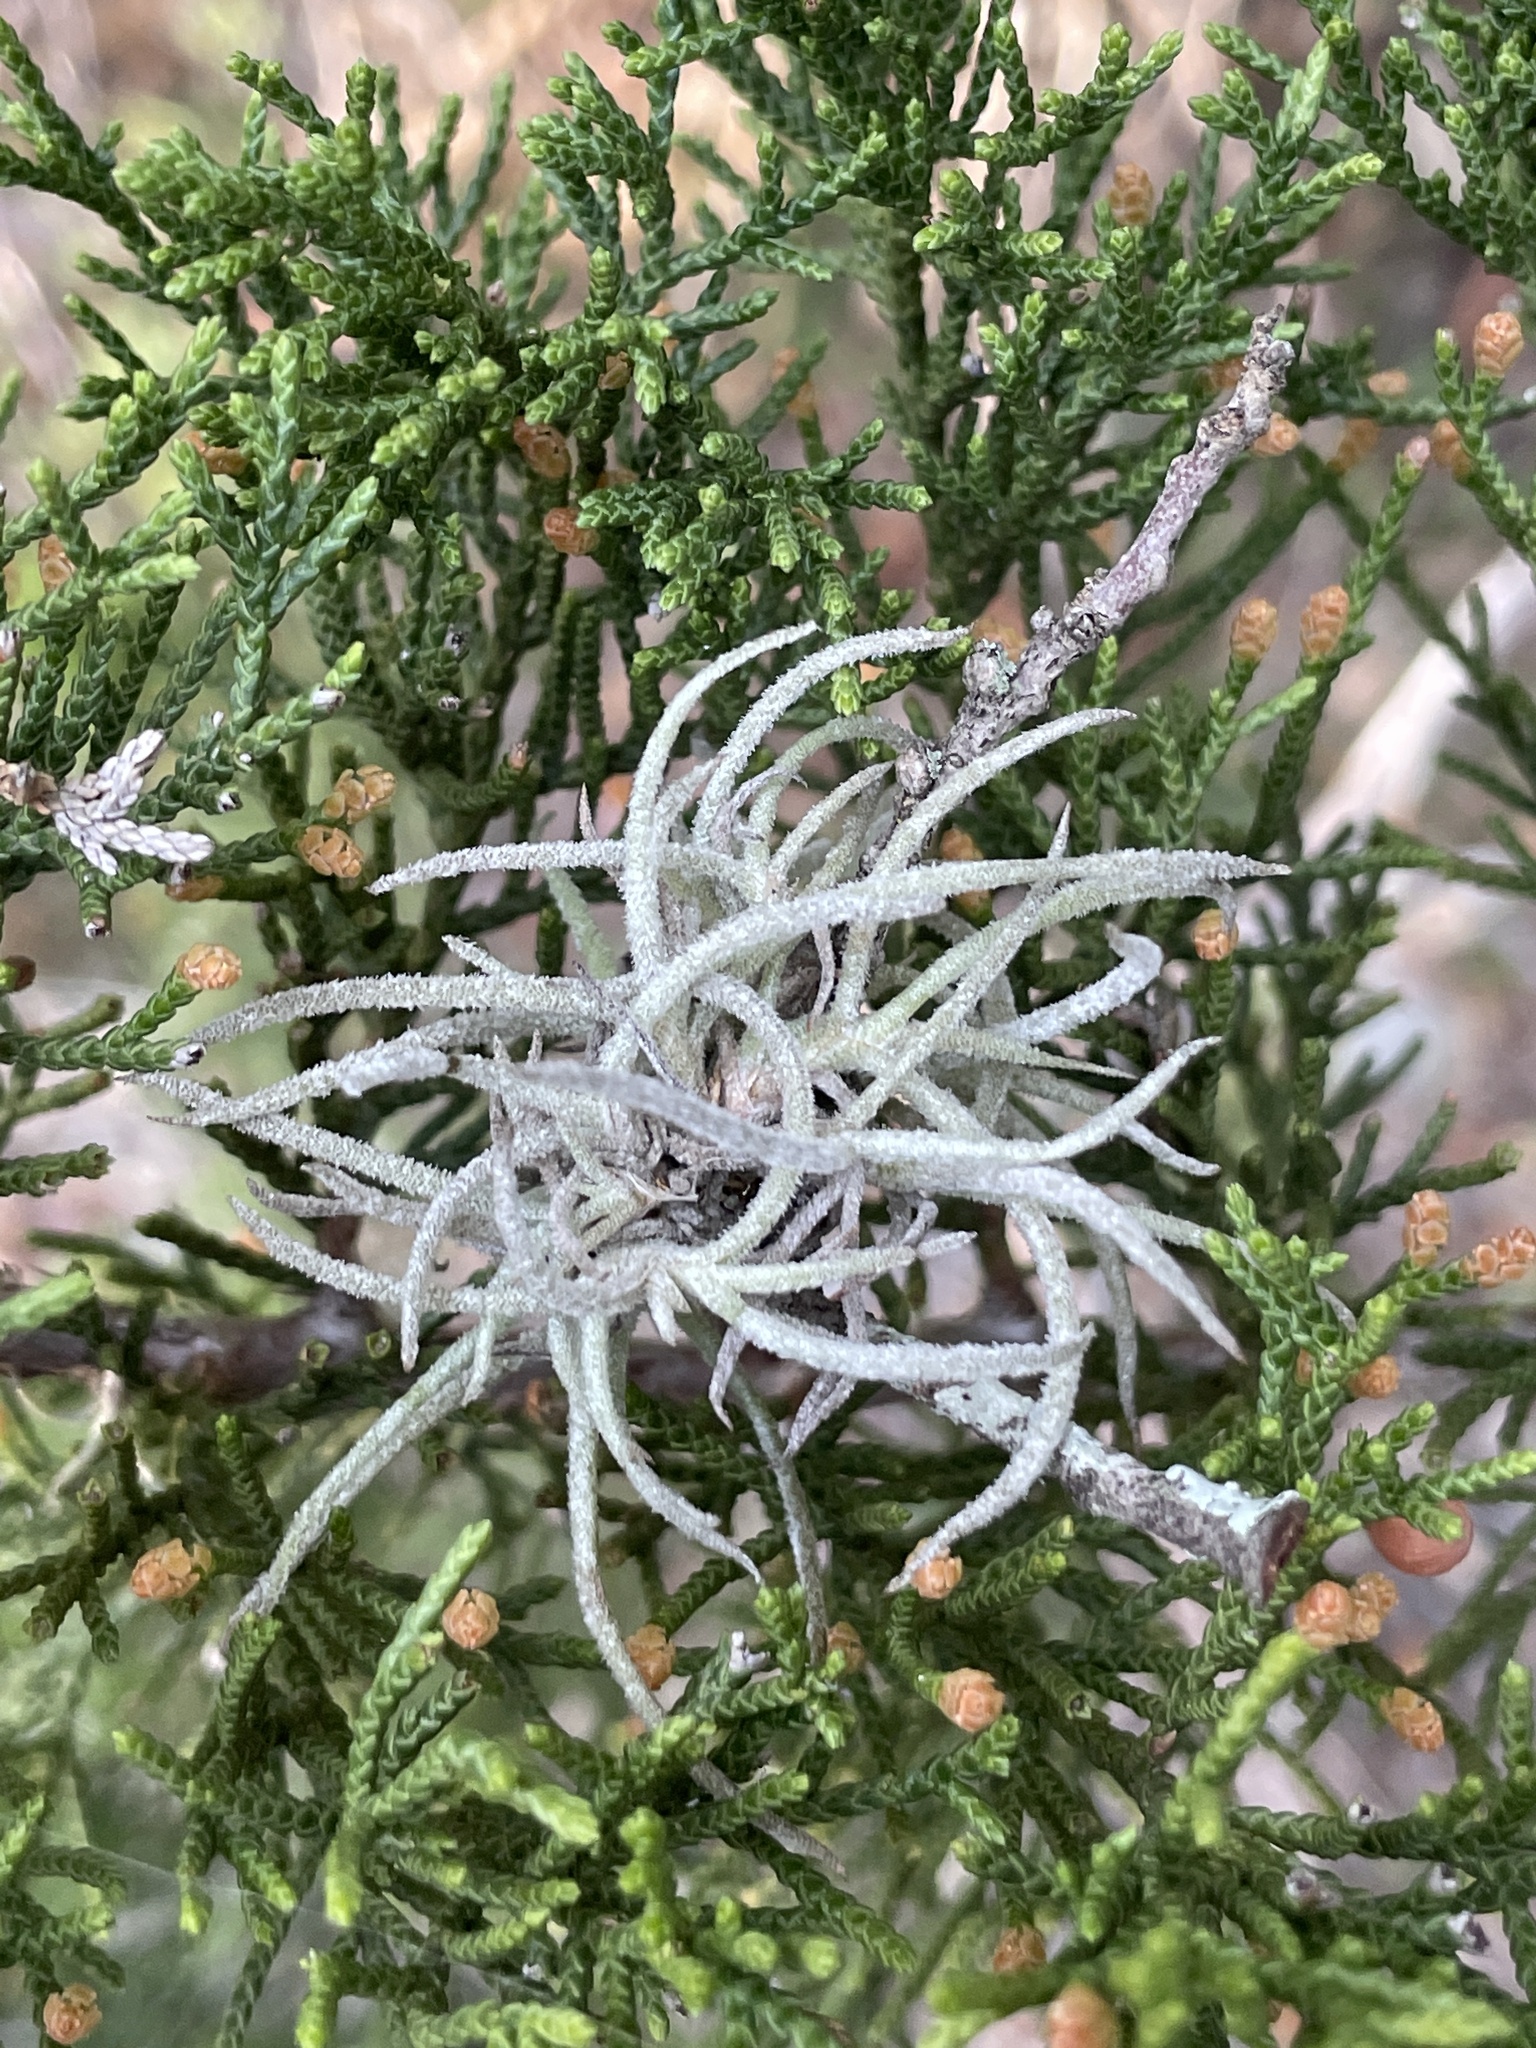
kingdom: Plantae
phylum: Tracheophyta
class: Liliopsida
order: Poales
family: Bromeliaceae
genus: Tillandsia
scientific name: Tillandsia recurvata
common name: Small ballmoss
